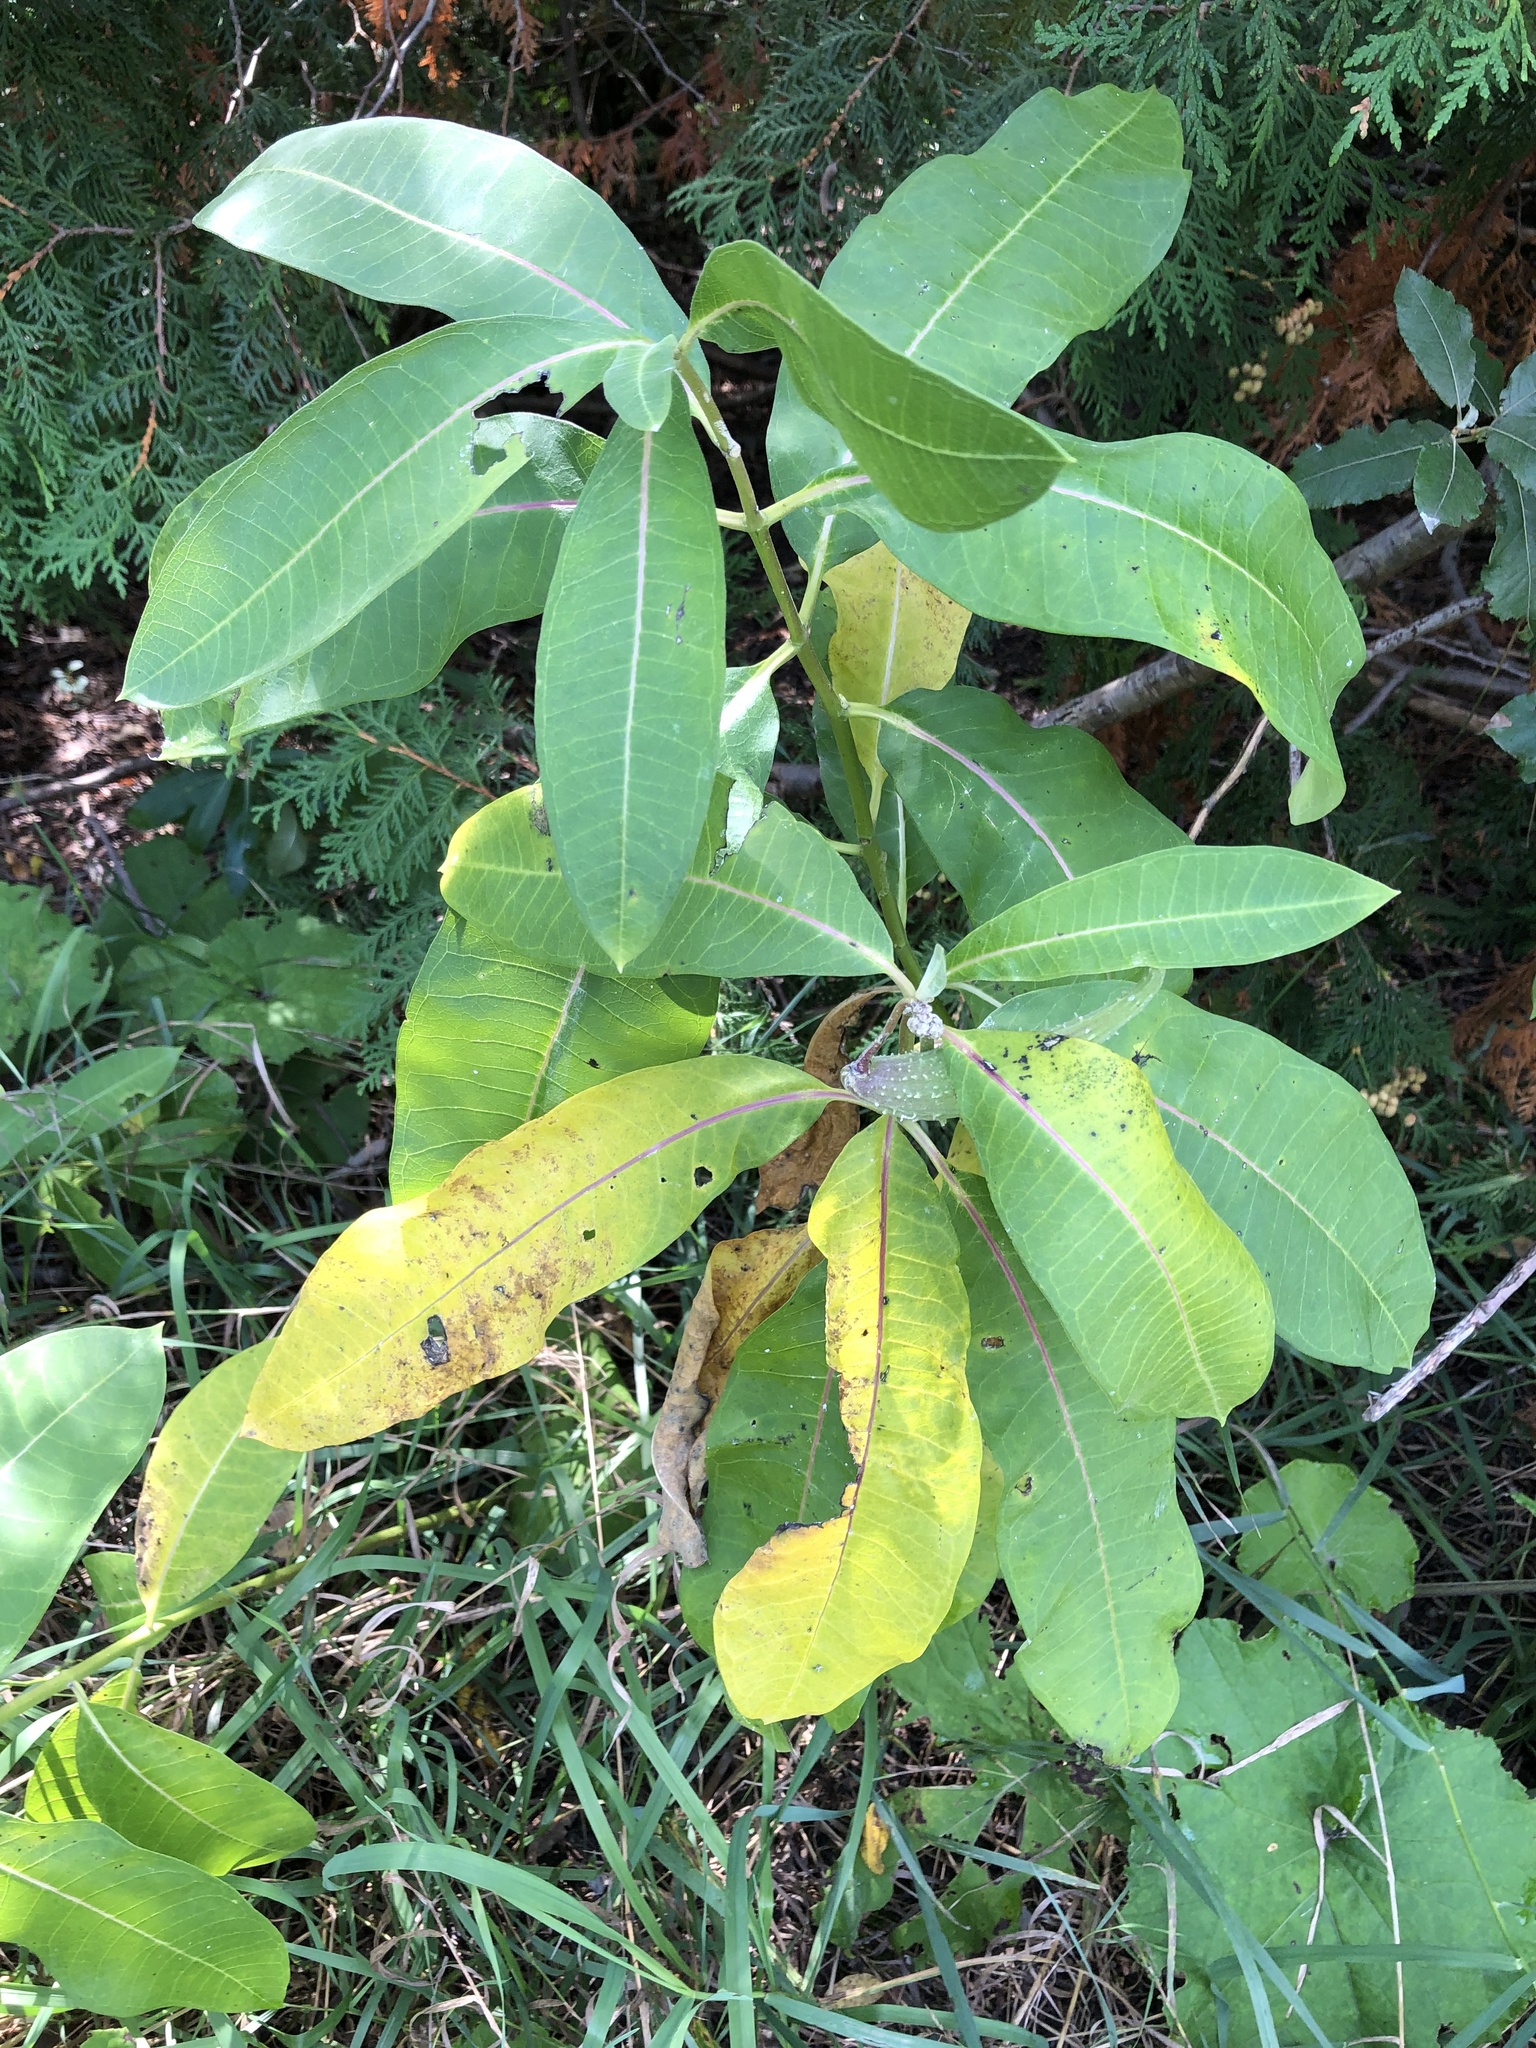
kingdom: Plantae
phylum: Tracheophyta
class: Magnoliopsida
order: Gentianales
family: Apocynaceae
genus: Asclepias
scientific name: Asclepias syriaca
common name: Common milkweed
